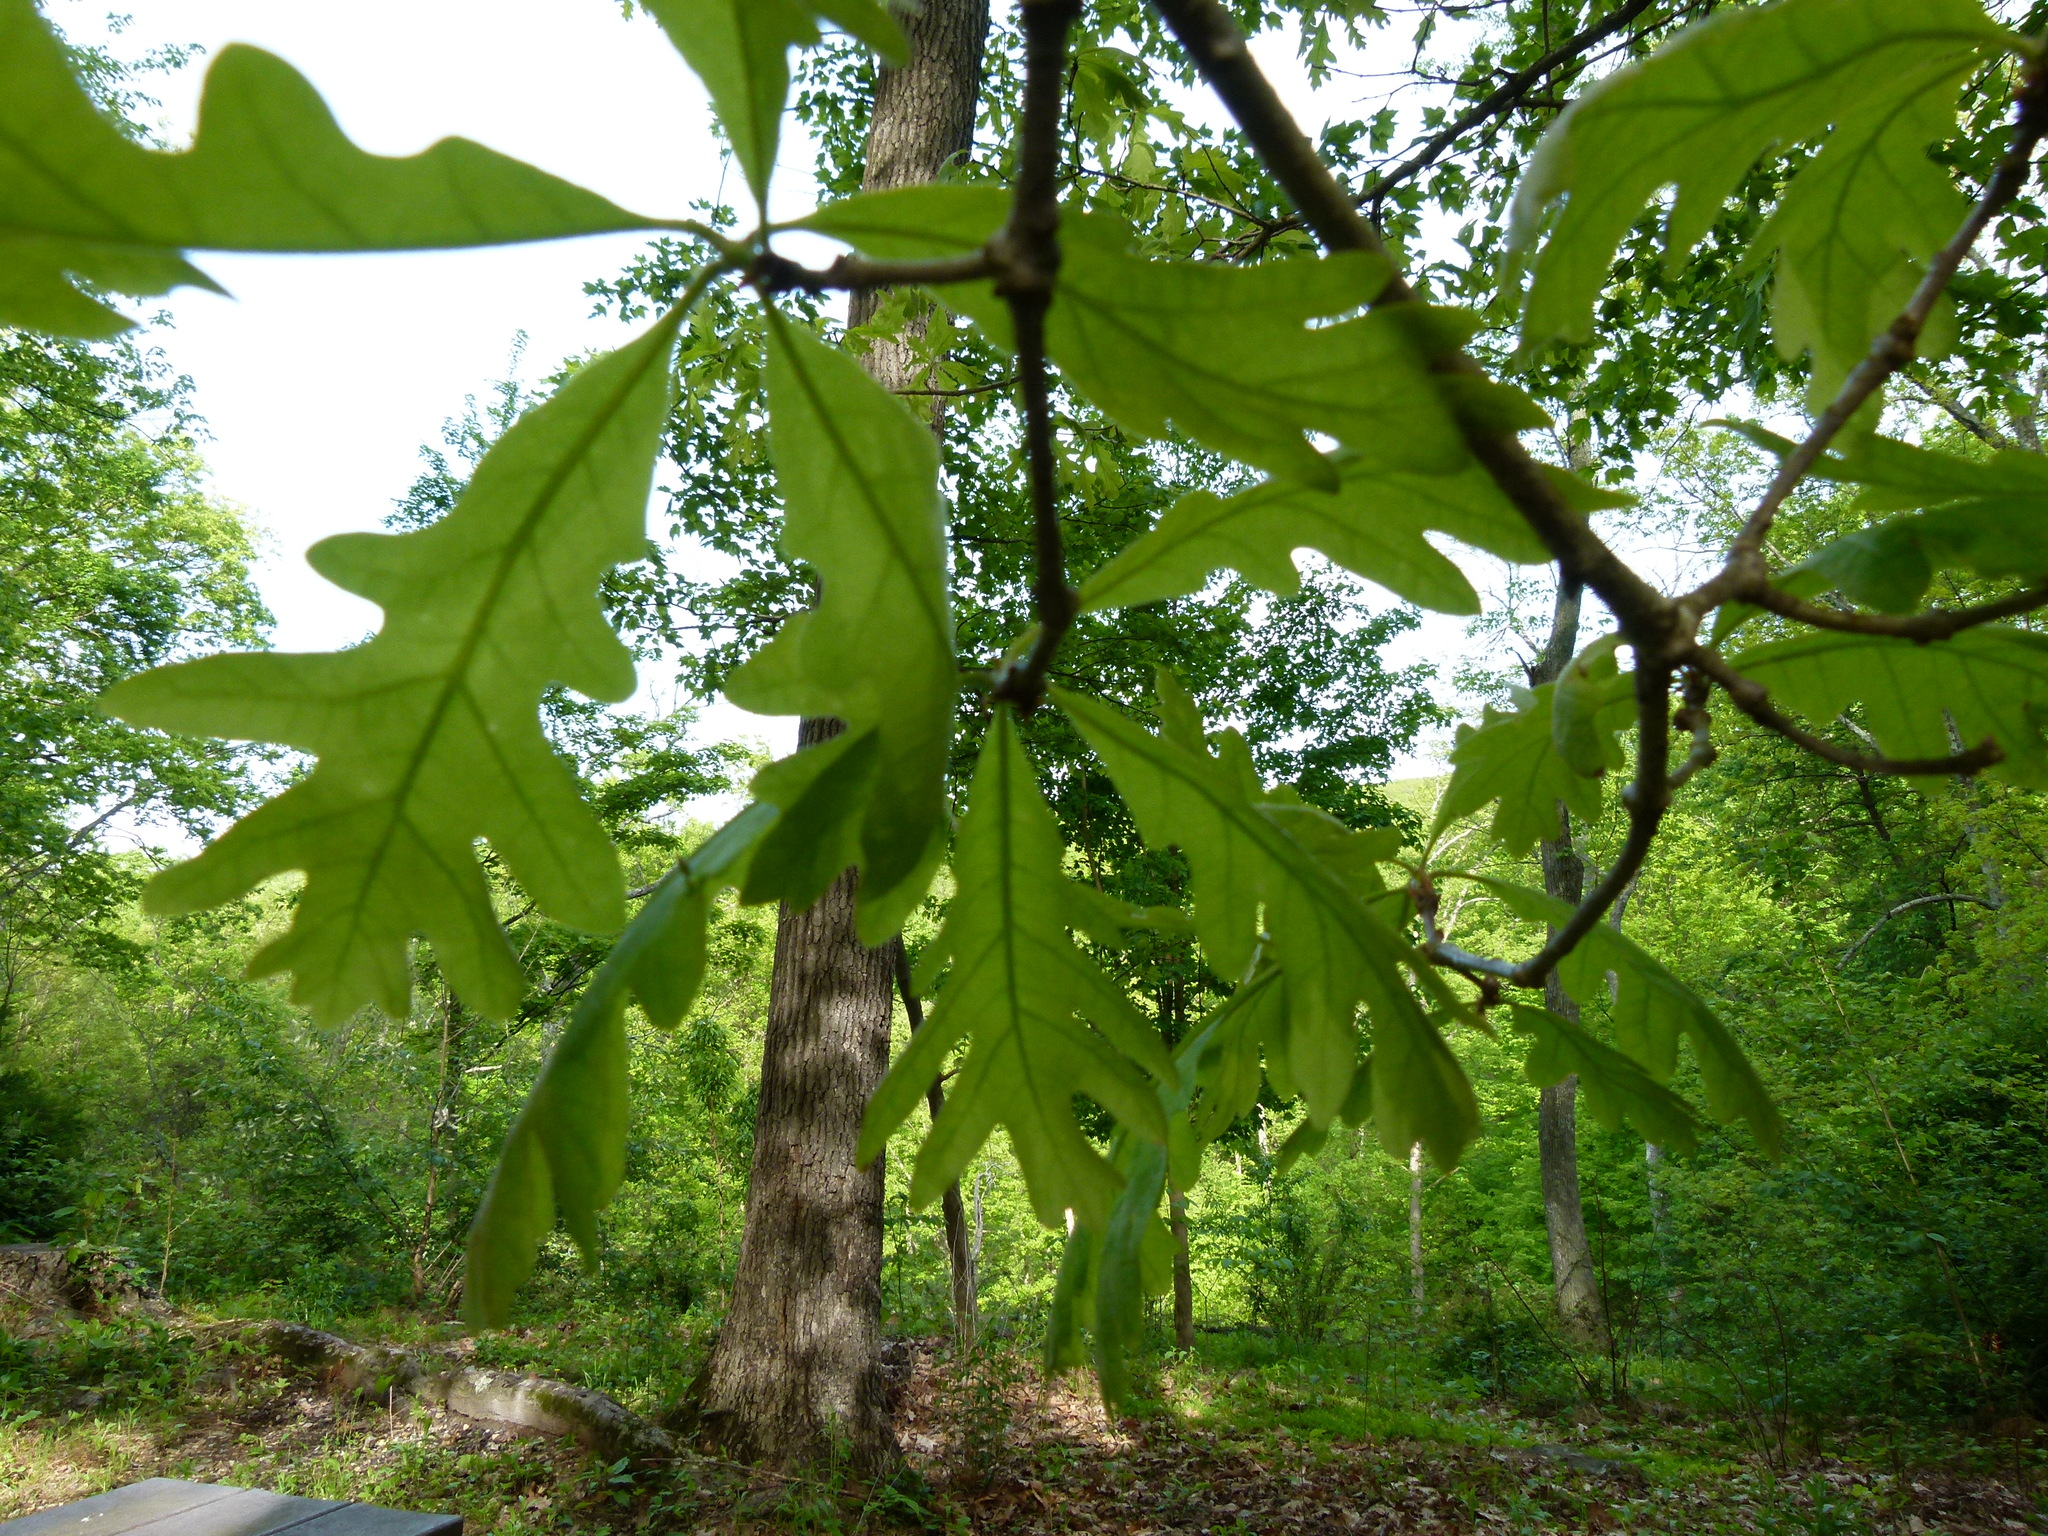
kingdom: Plantae
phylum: Tracheophyta
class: Magnoliopsida
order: Fagales
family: Fagaceae
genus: Quercus
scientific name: Quercus alba
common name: White oak
